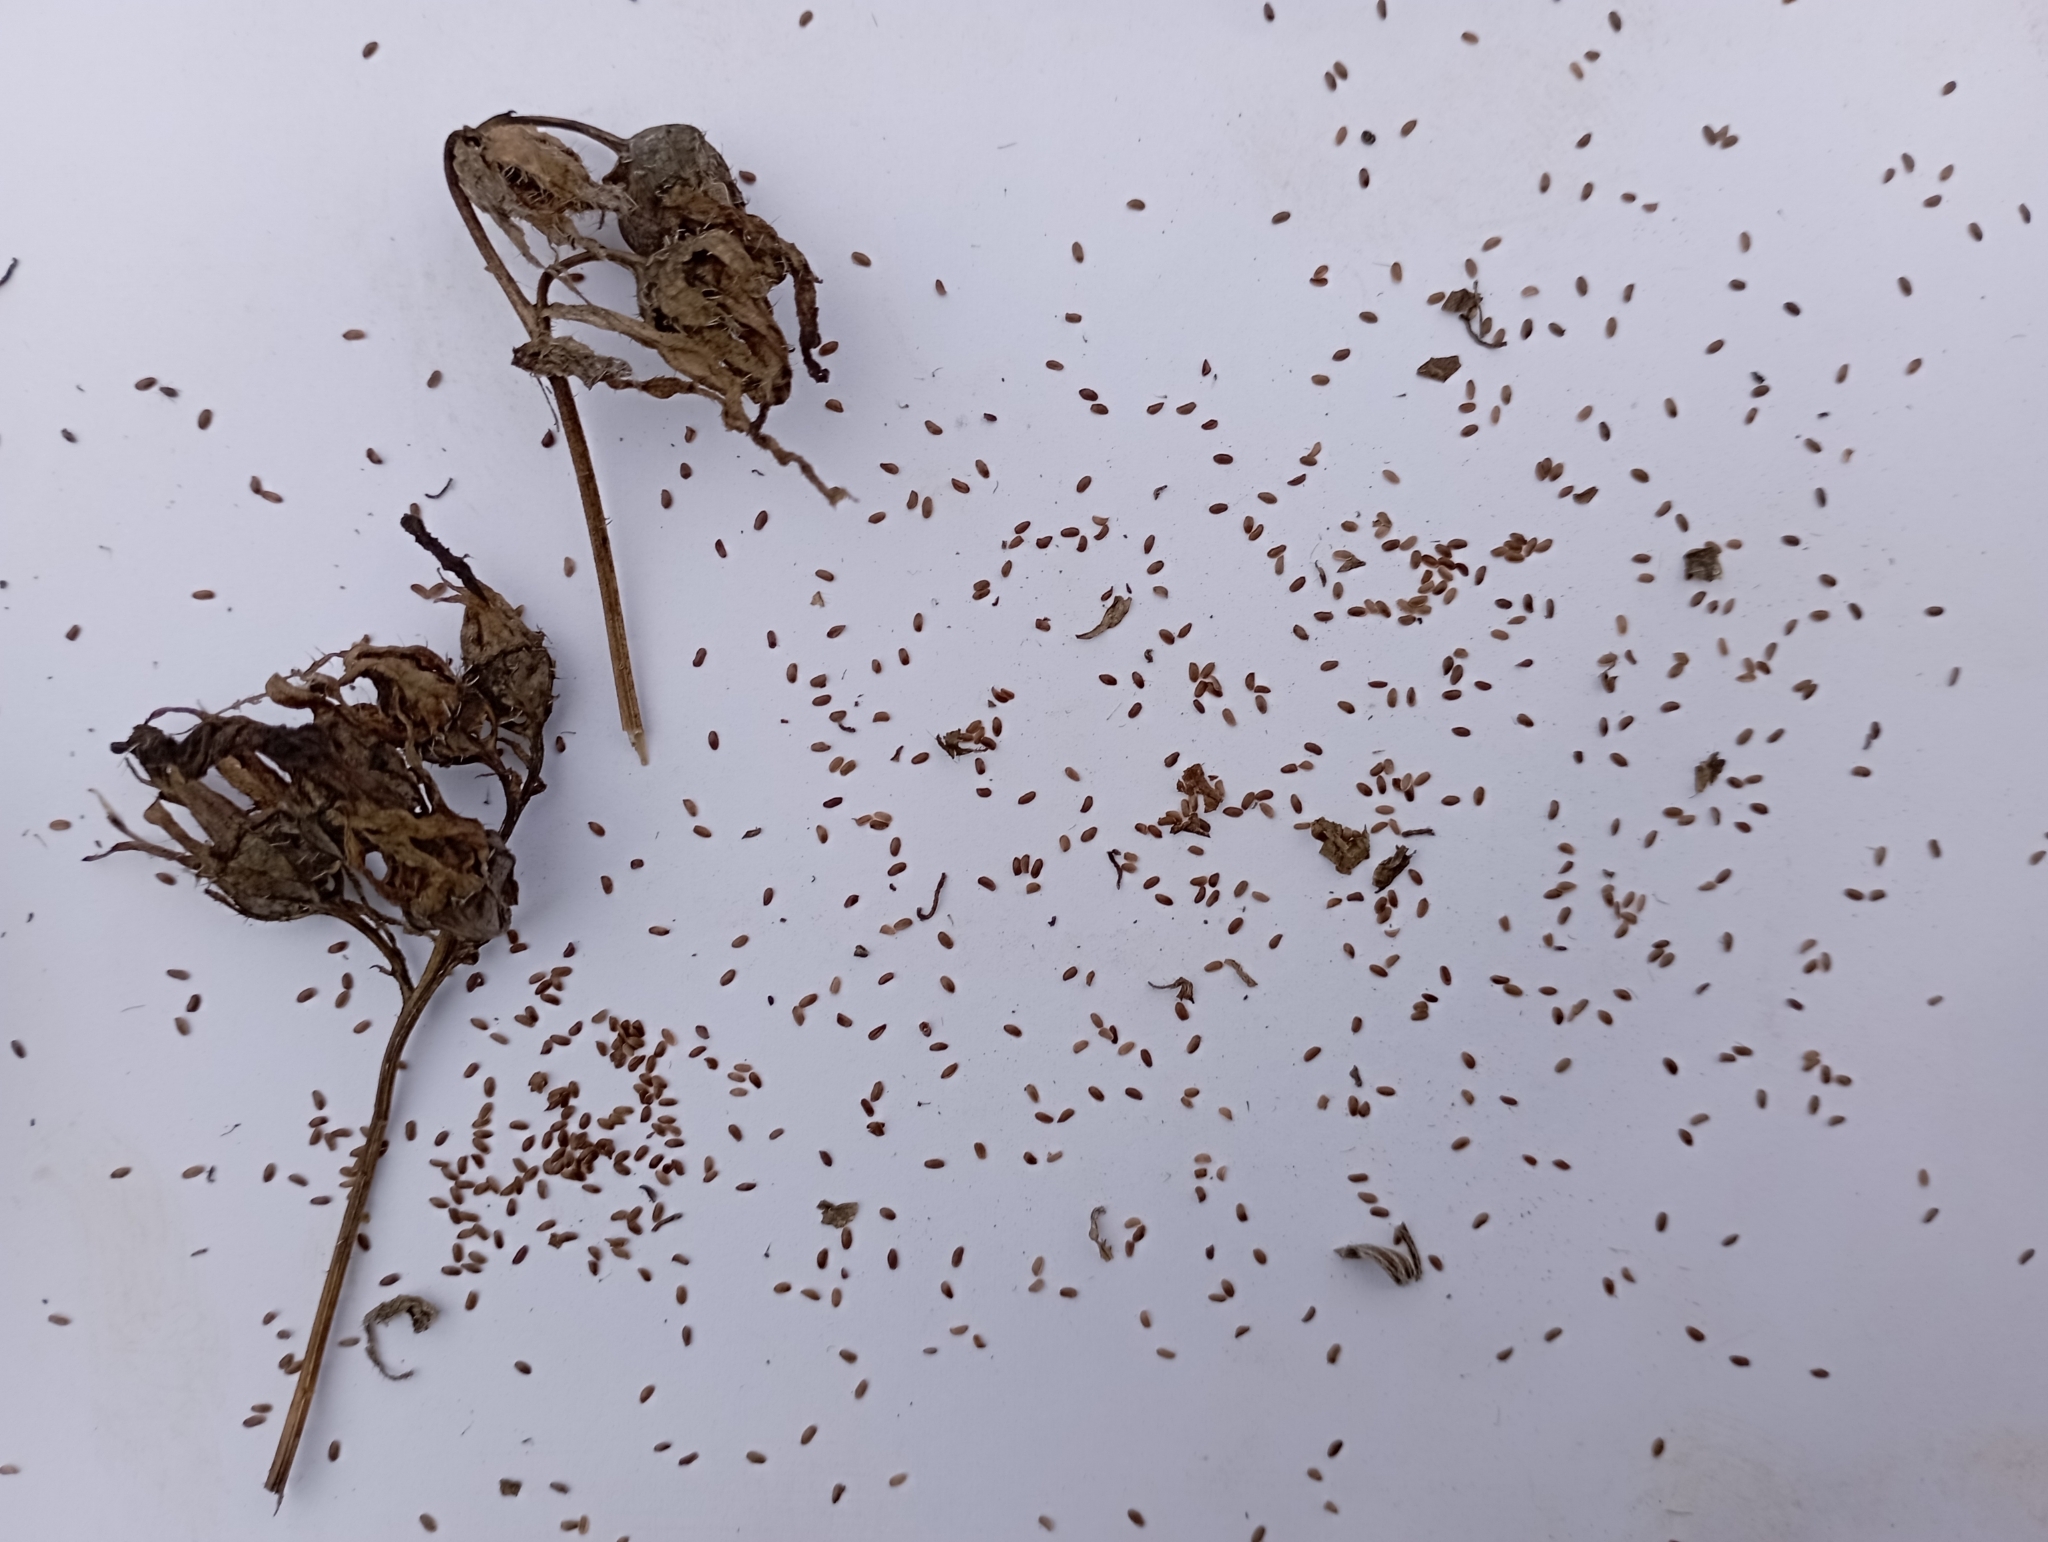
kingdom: Plantae
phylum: Tracheophyta
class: Magnoliopsida
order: Asterales
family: Campanulaceae
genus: Campanula
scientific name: Campanula trachelium
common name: Nettle-leaved bellflower
